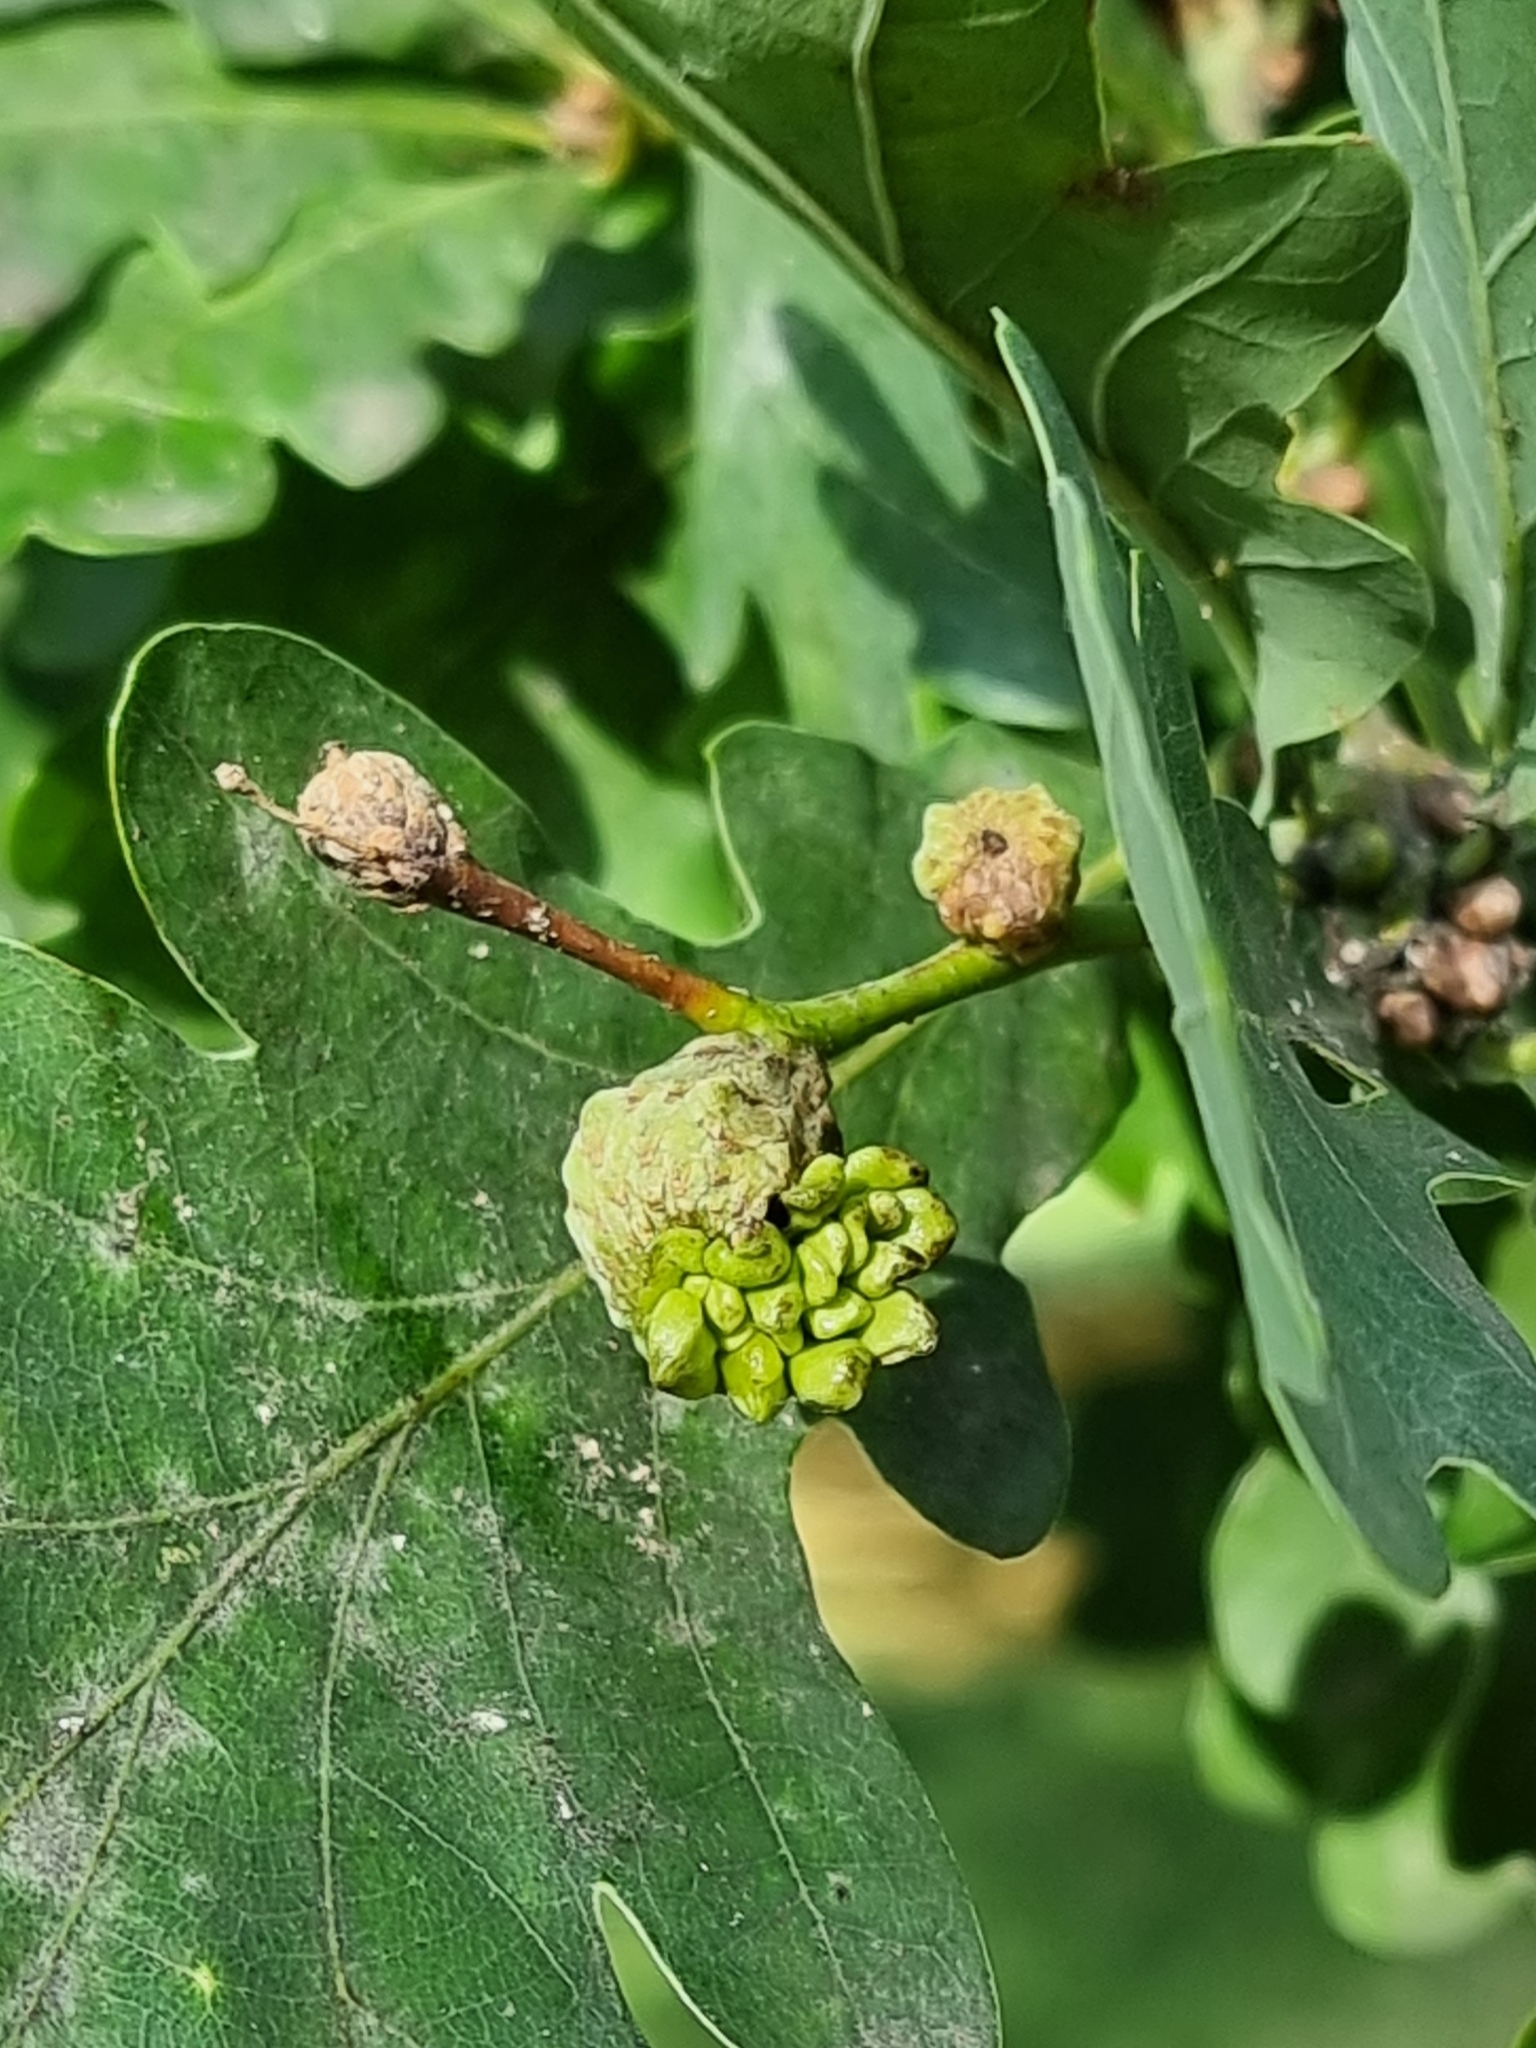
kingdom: Animalia
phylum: Arthropoda
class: Insecta
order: Hymenoptera
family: Cynipidae
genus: Andricus
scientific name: Andricus quercuscalicis
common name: Knopper gall
